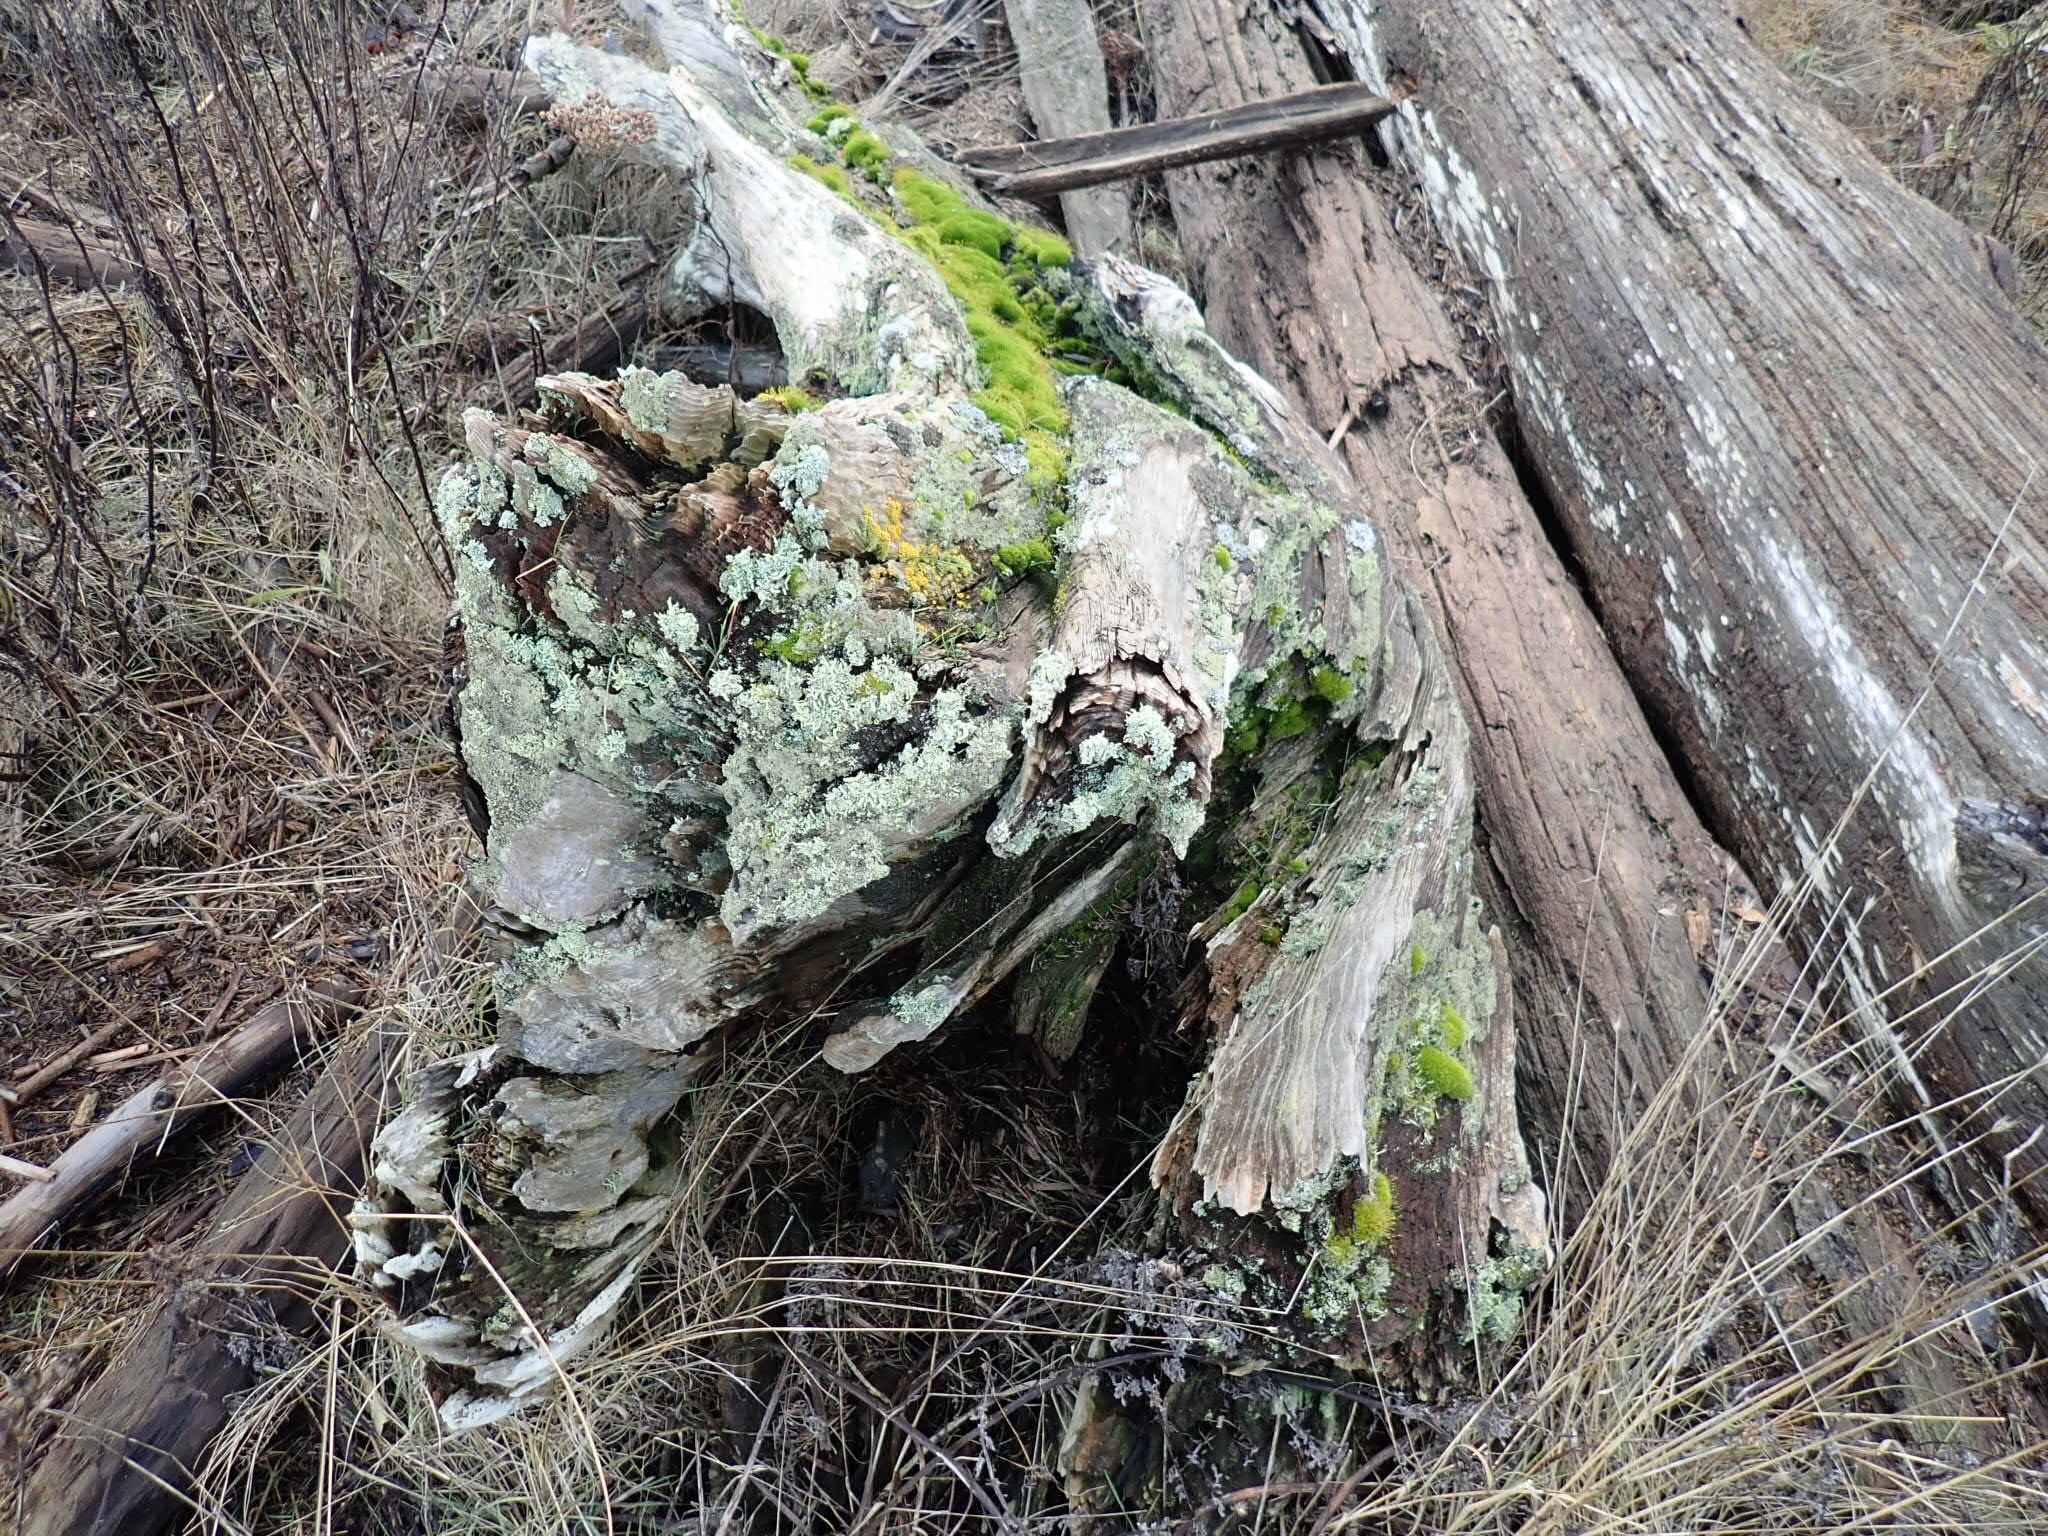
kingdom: Fungi
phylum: Ascomycota
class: Lecanoromycetes
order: Lecanorales
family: Cladoniaceae
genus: Cladonia
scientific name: Cladonia squamosa
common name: Dragon horn
